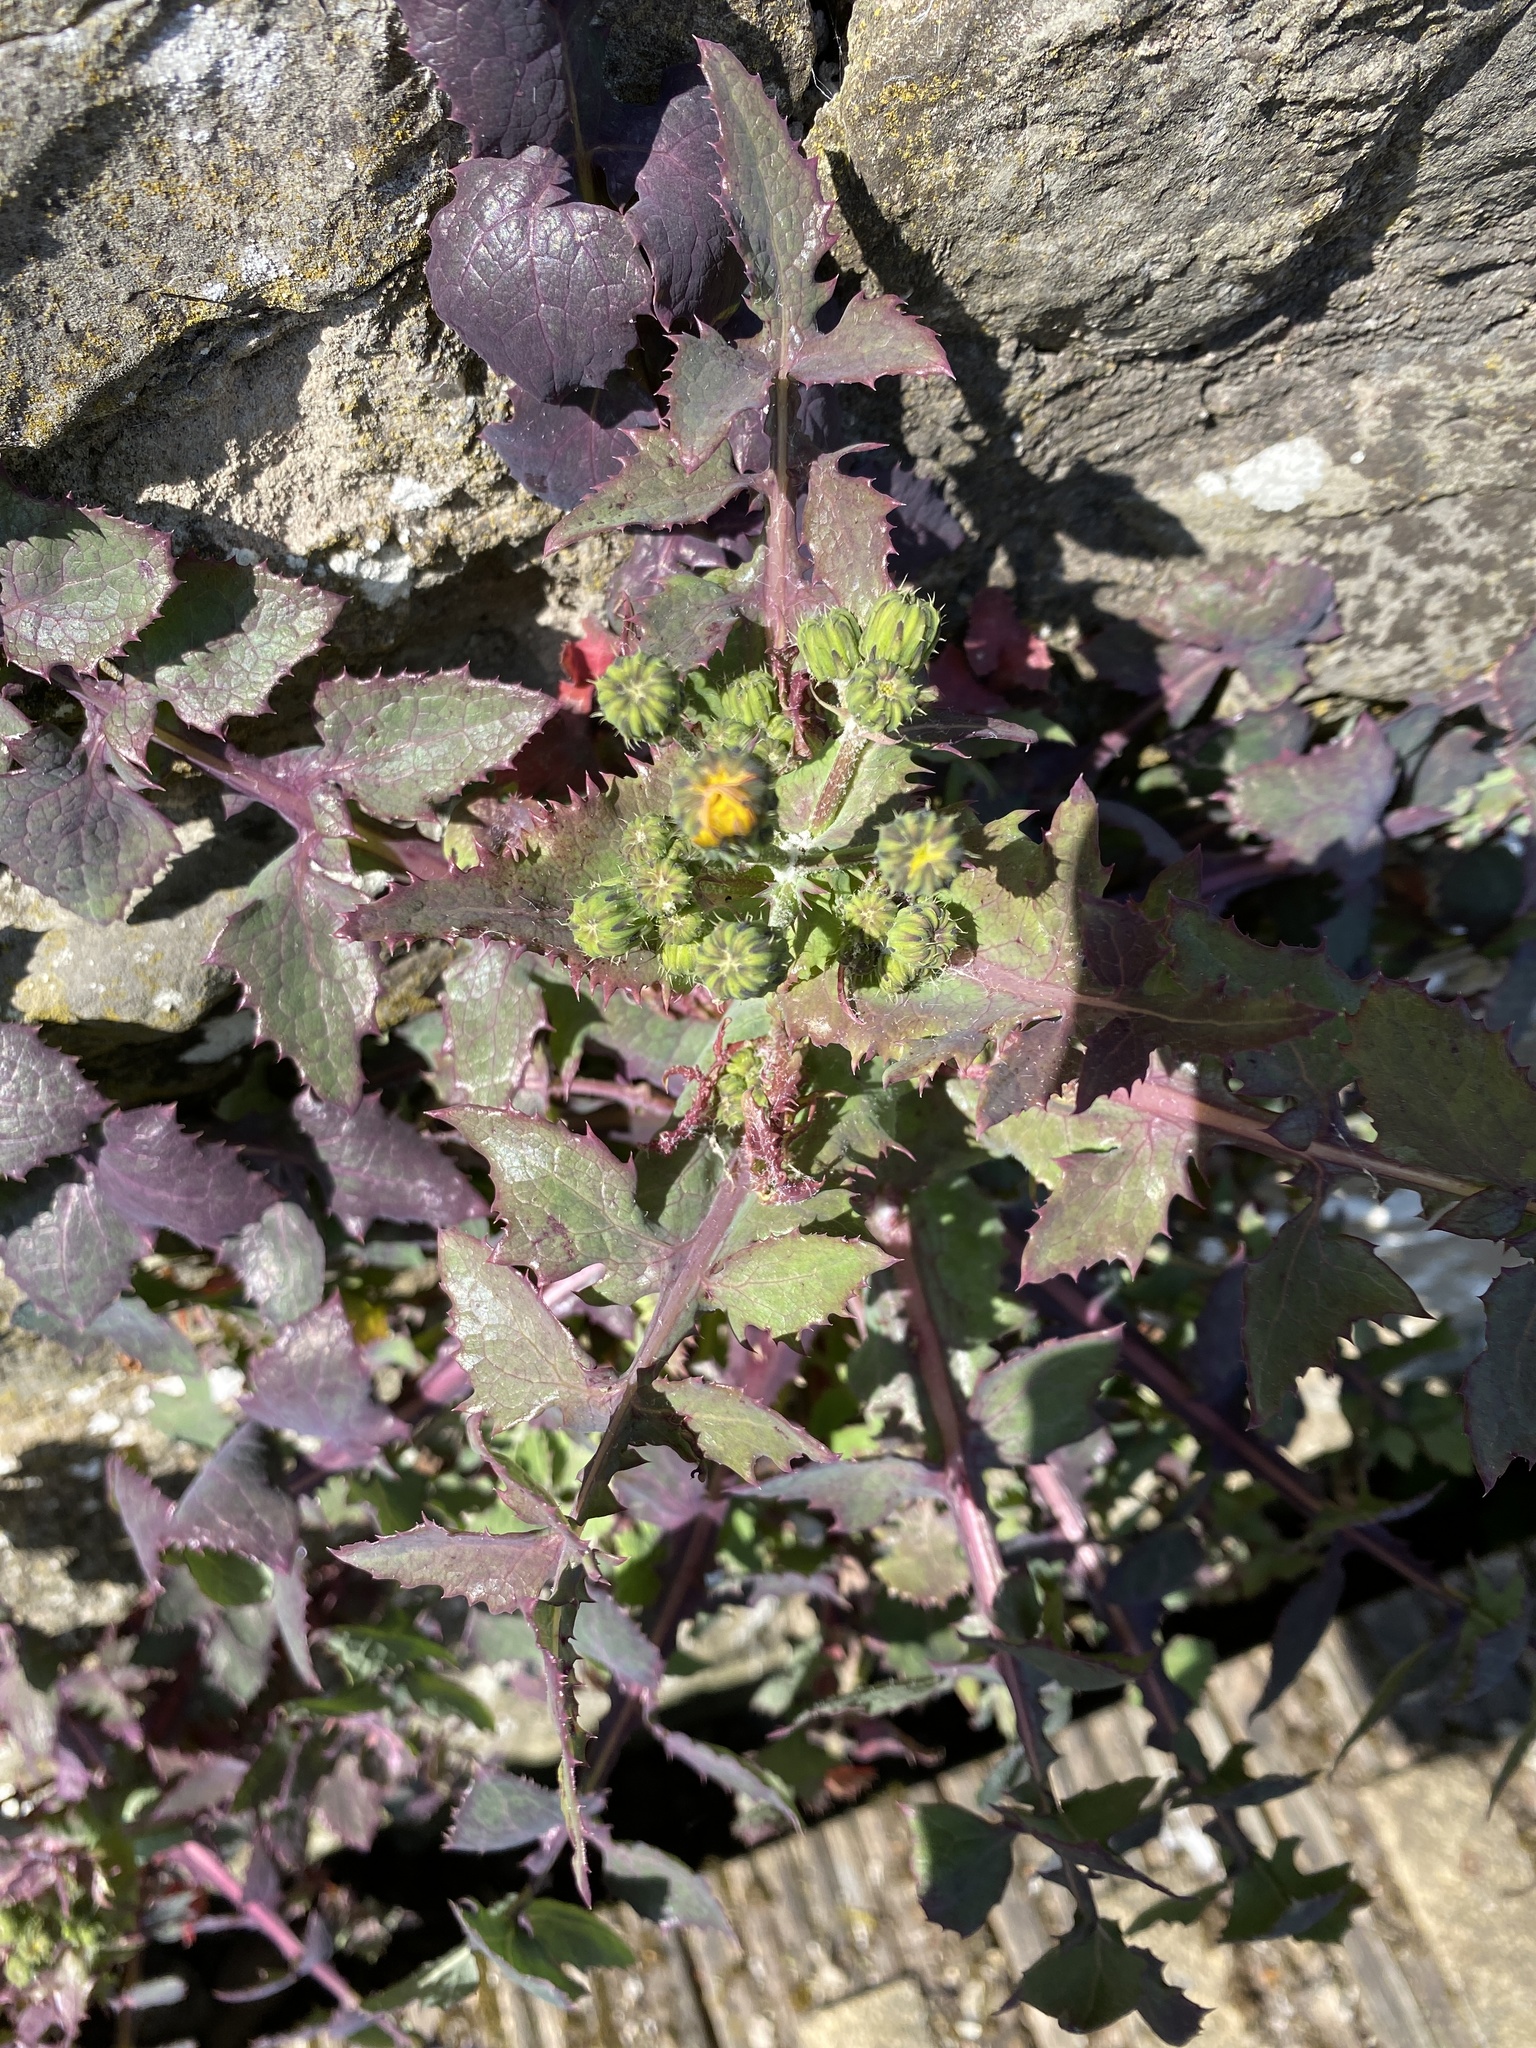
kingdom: Plantae
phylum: Tracheophyta
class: Magnoliopsida
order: Asterales
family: Asteraceae
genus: Sonchus
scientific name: Sonchus oleraceus
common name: Common sowthistle
